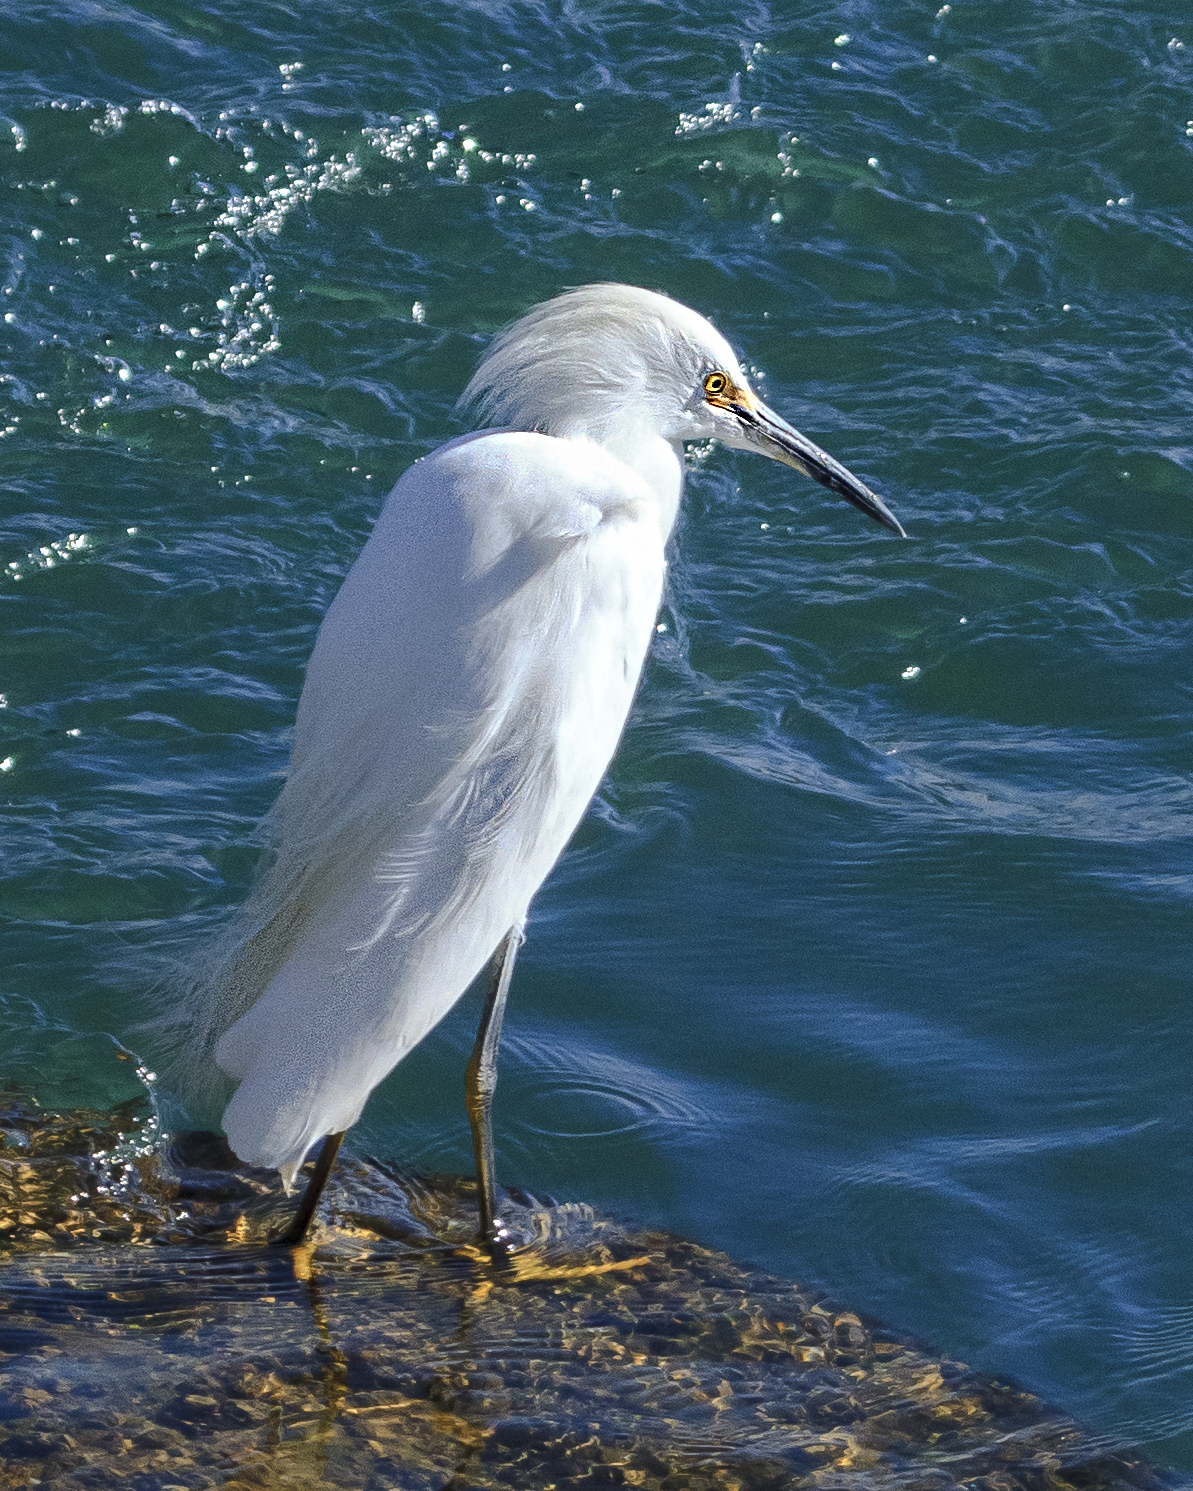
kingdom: Animalia
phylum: Chordata
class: Aves
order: Pelecaniformes
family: Ardeidae
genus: Egretta
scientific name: Egretta thula
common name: Snowy egret
